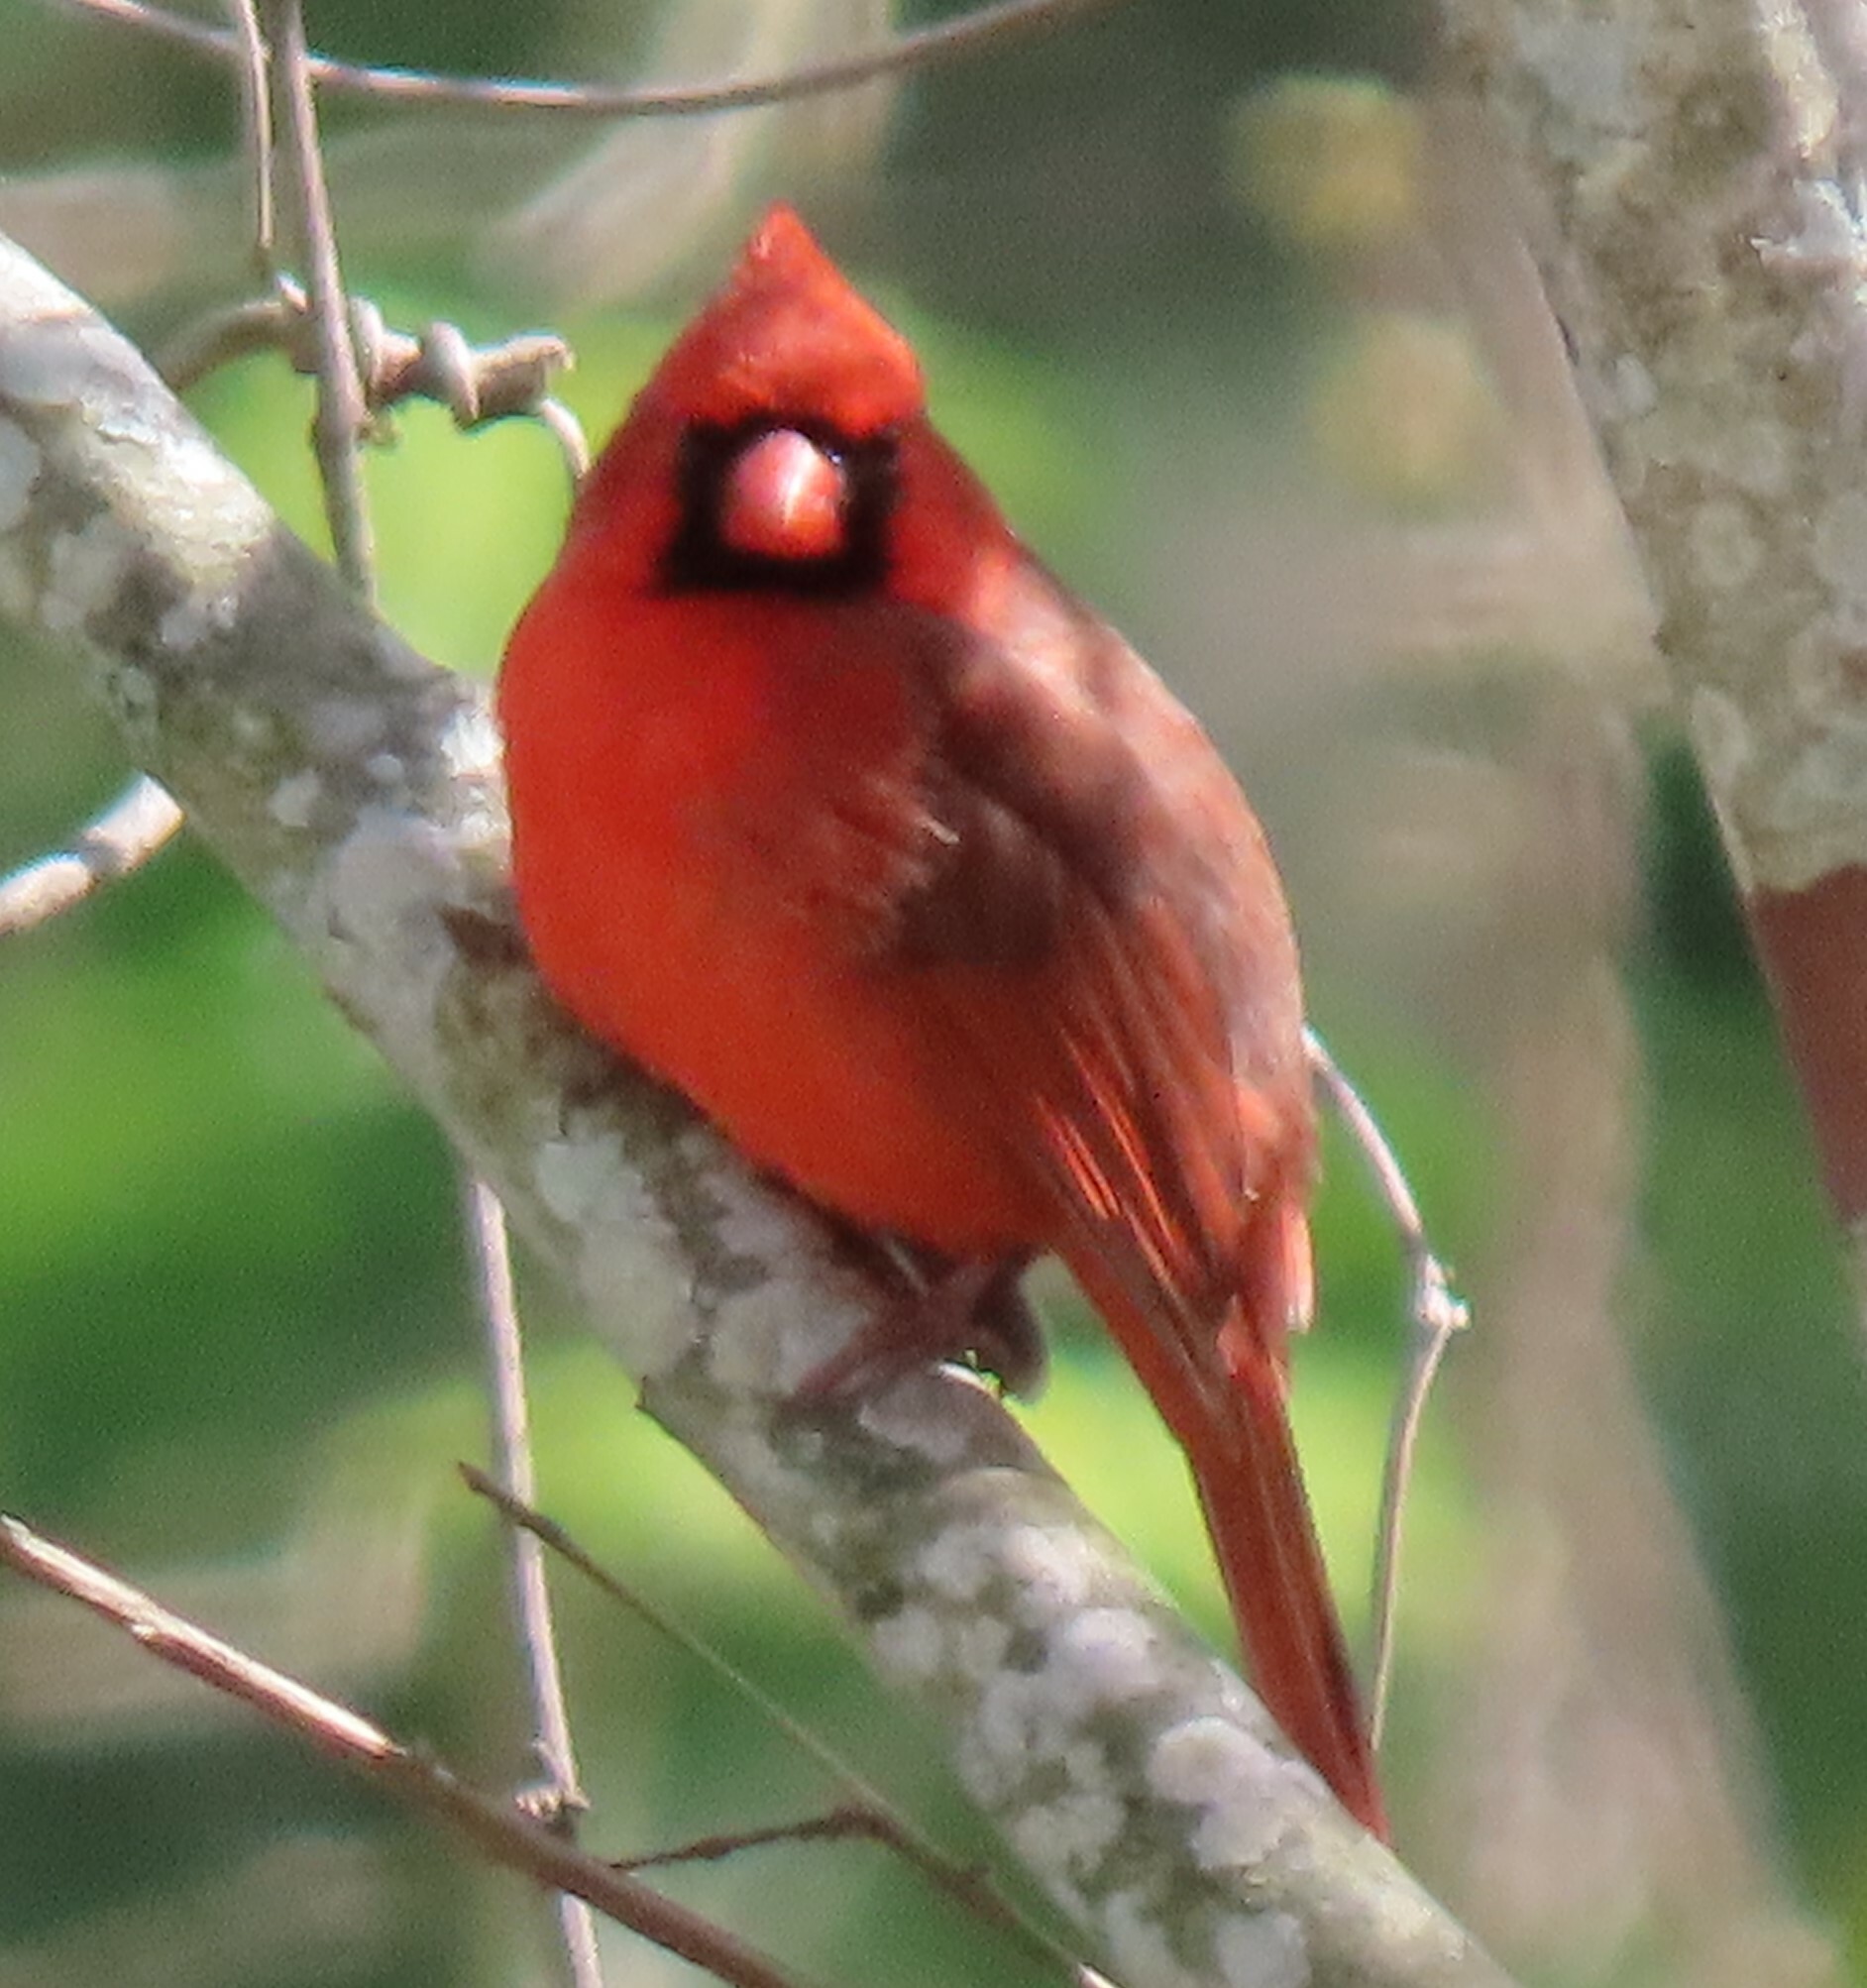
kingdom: Animalia
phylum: Chordata
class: Aves
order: Passeriformes
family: Cardinalidae
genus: Cardinalis
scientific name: Cardinalis cardinalis
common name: Northern cardinal
